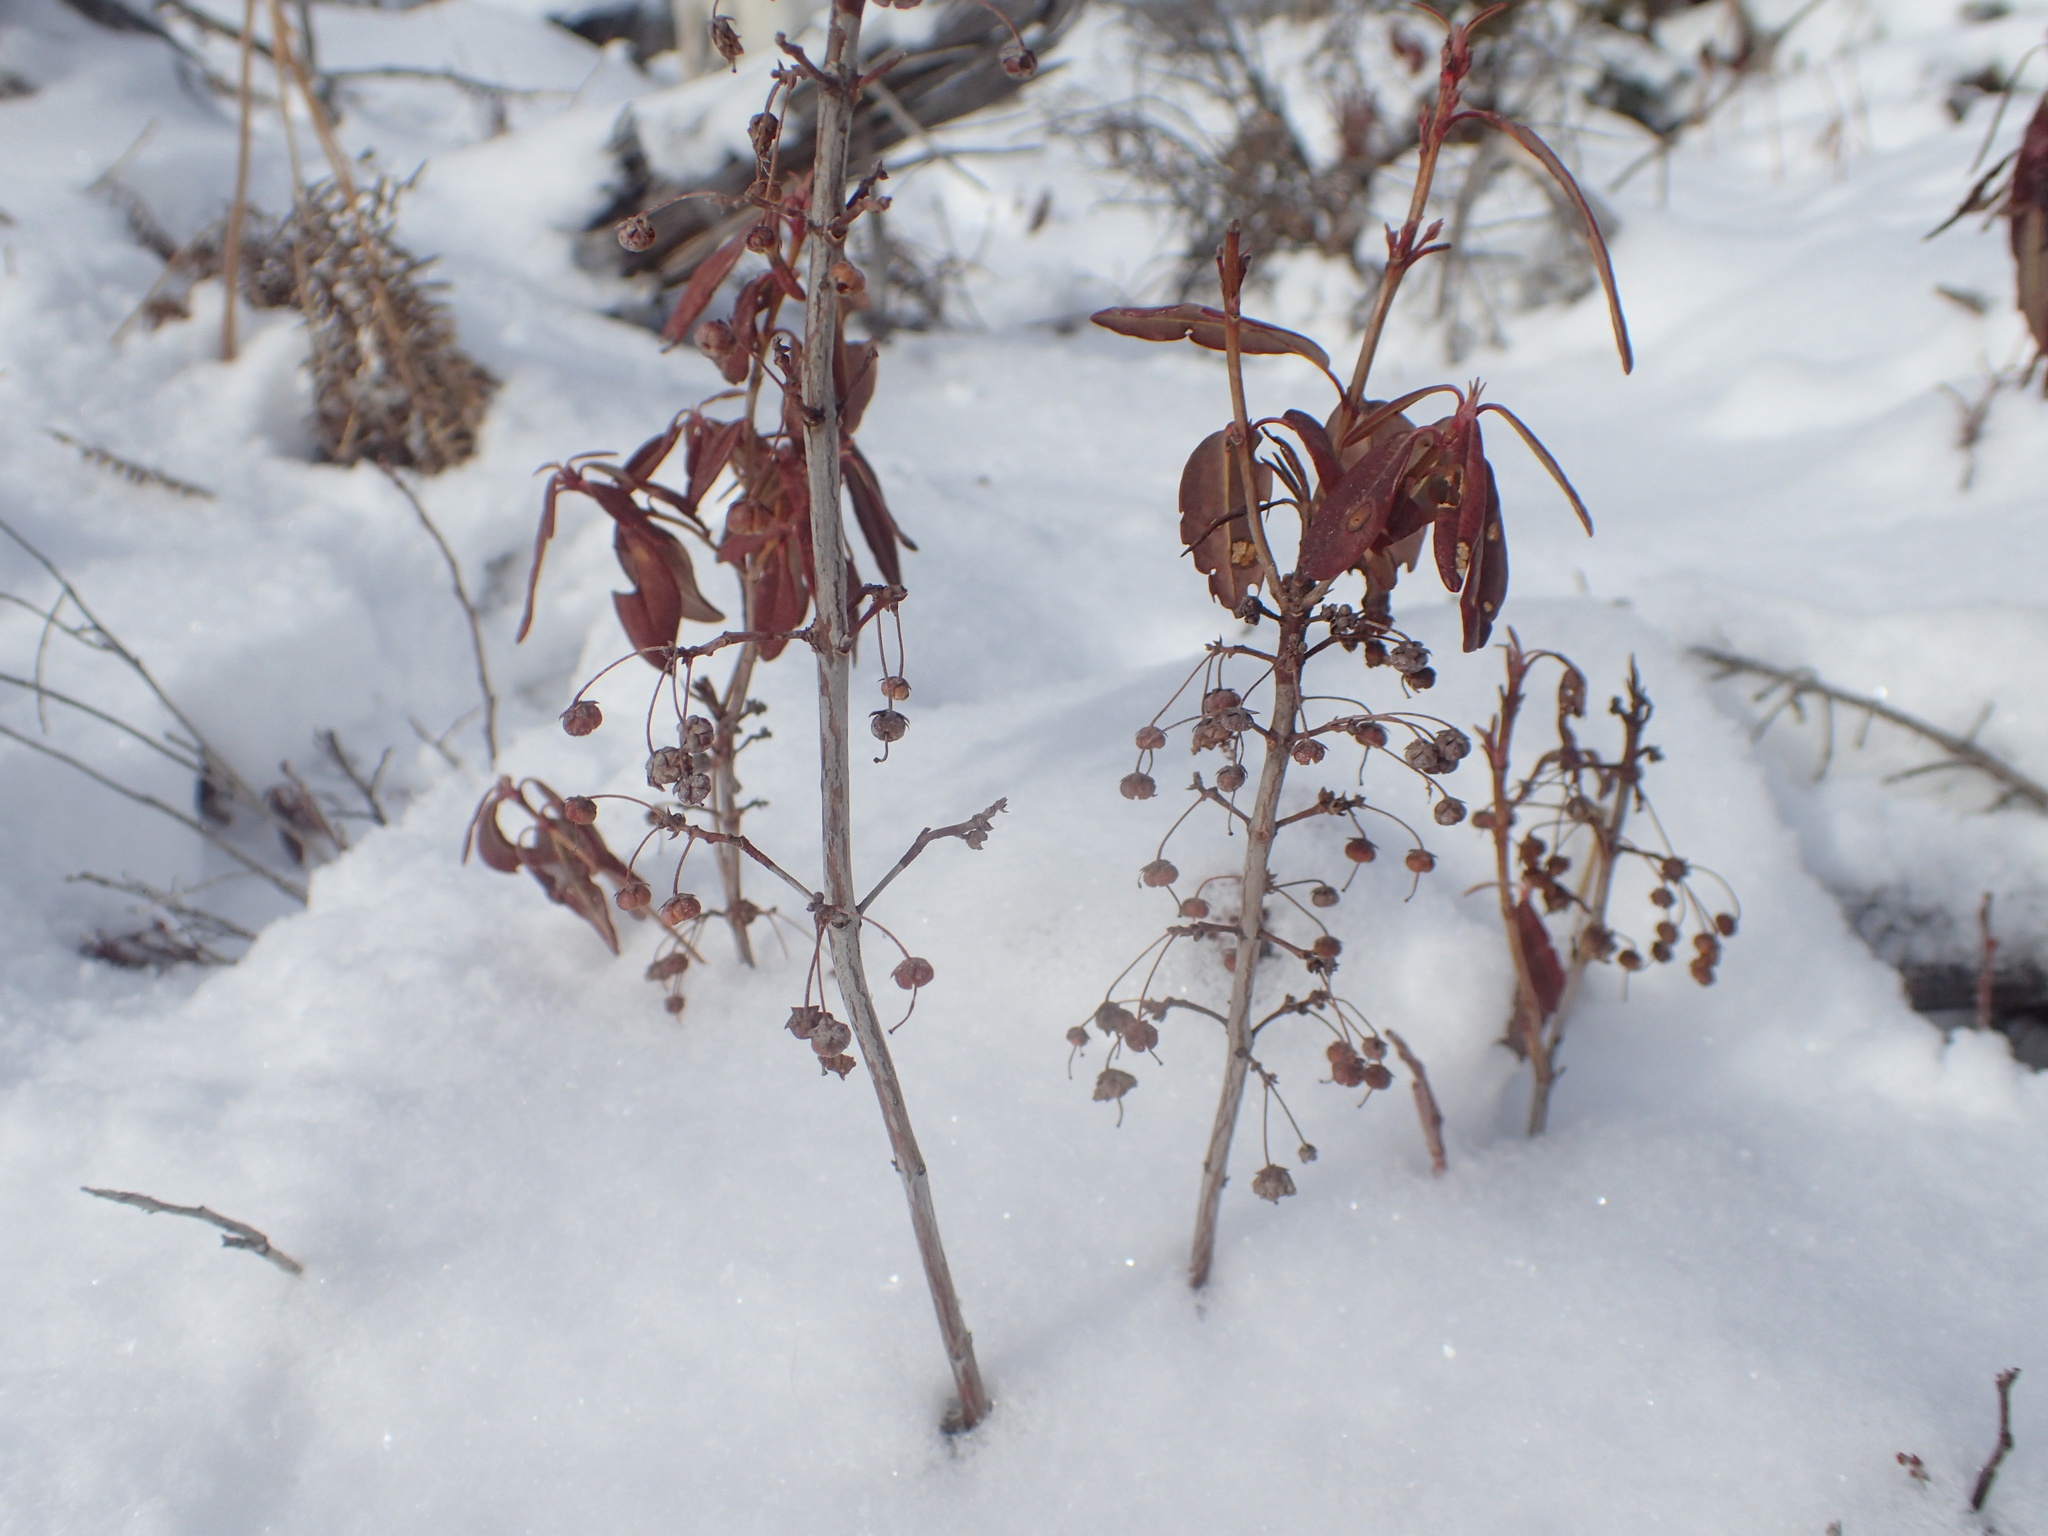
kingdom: Plantae
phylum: Tracheophyta
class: Magnoliopsida
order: Ericales
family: Ericaceae
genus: Kalmia
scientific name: Kalmia angustifolia
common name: Sheep-laurel
